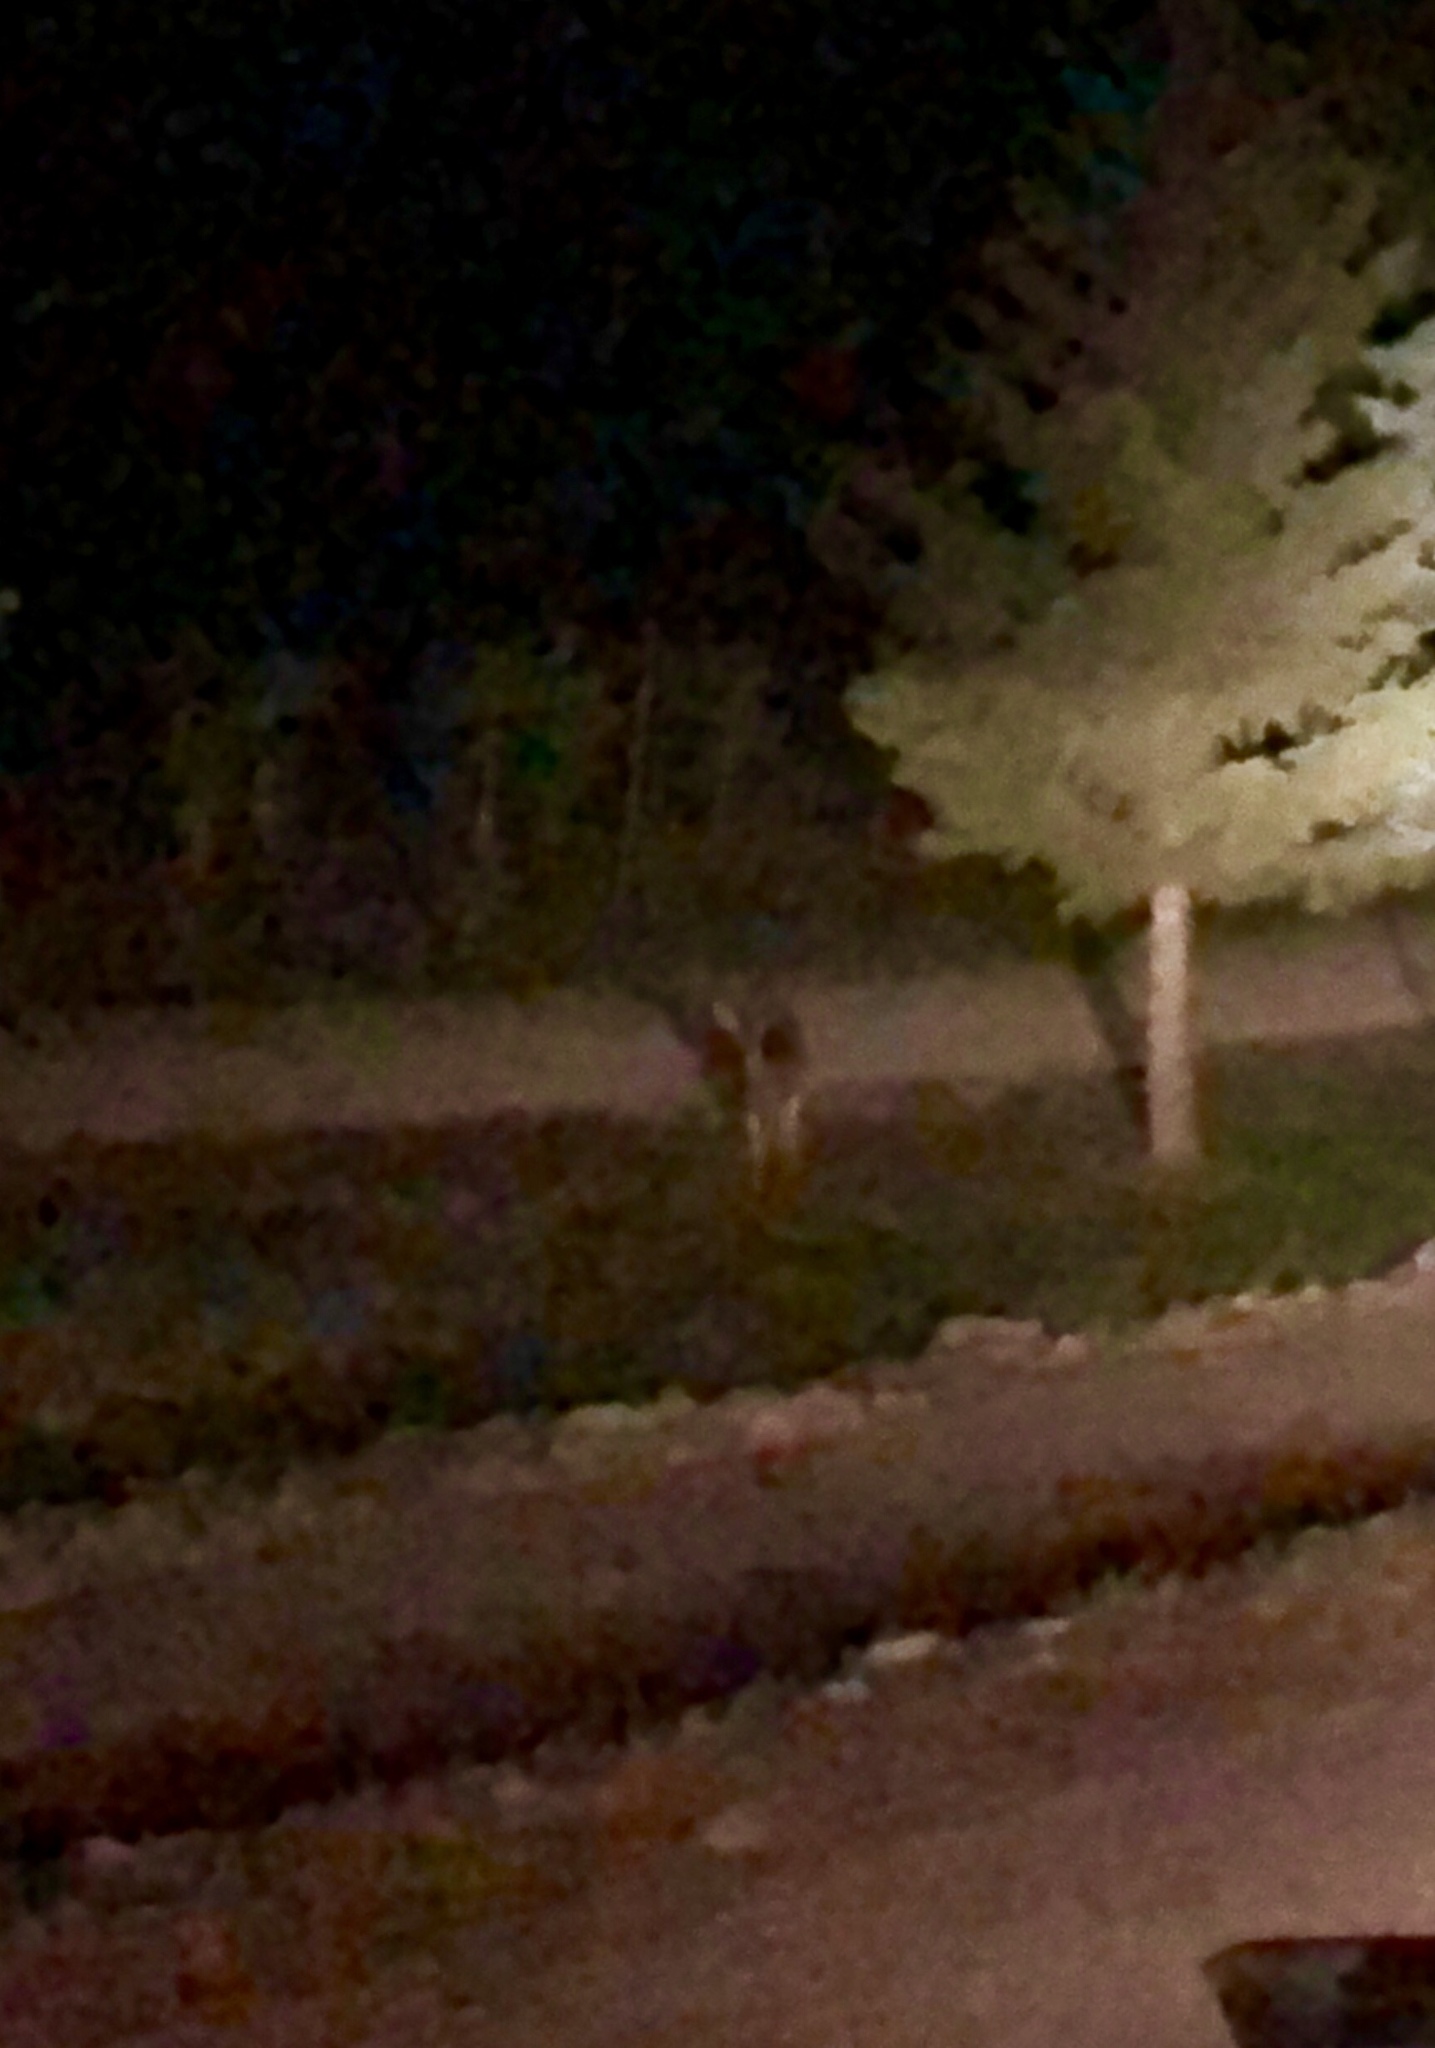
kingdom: Animalia
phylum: Chordata
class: Mammalia
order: Artiodactyla
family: Cervidae
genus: Odocoileus
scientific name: Odocoileus hemionus
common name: Mule deer
